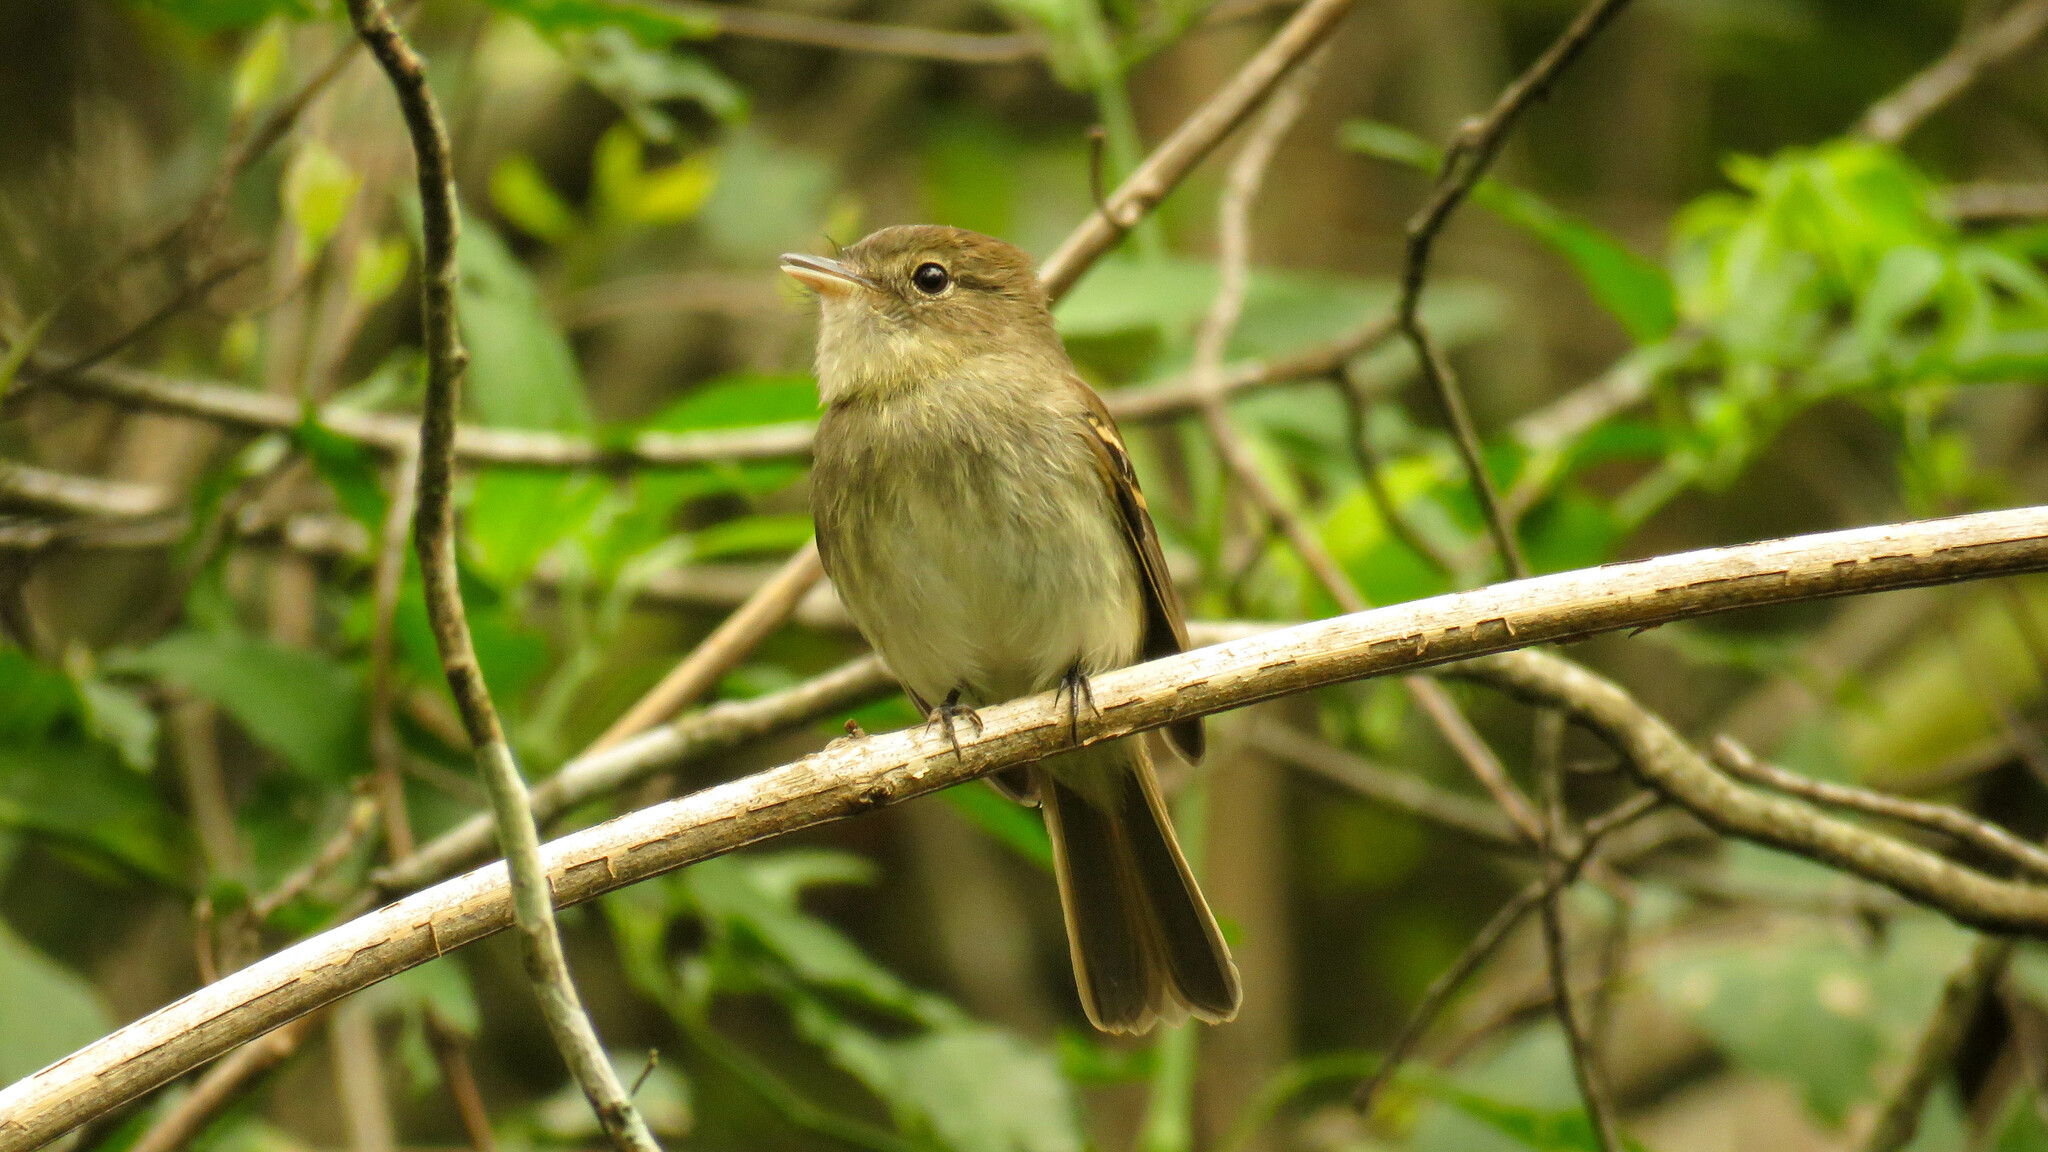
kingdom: Animalia
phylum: Chordata
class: Aves
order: Passeriformes
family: Tyrannidae
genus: Lathrotriccus
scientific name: Lathrotriccus euleri
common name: Euler's flycatcher
